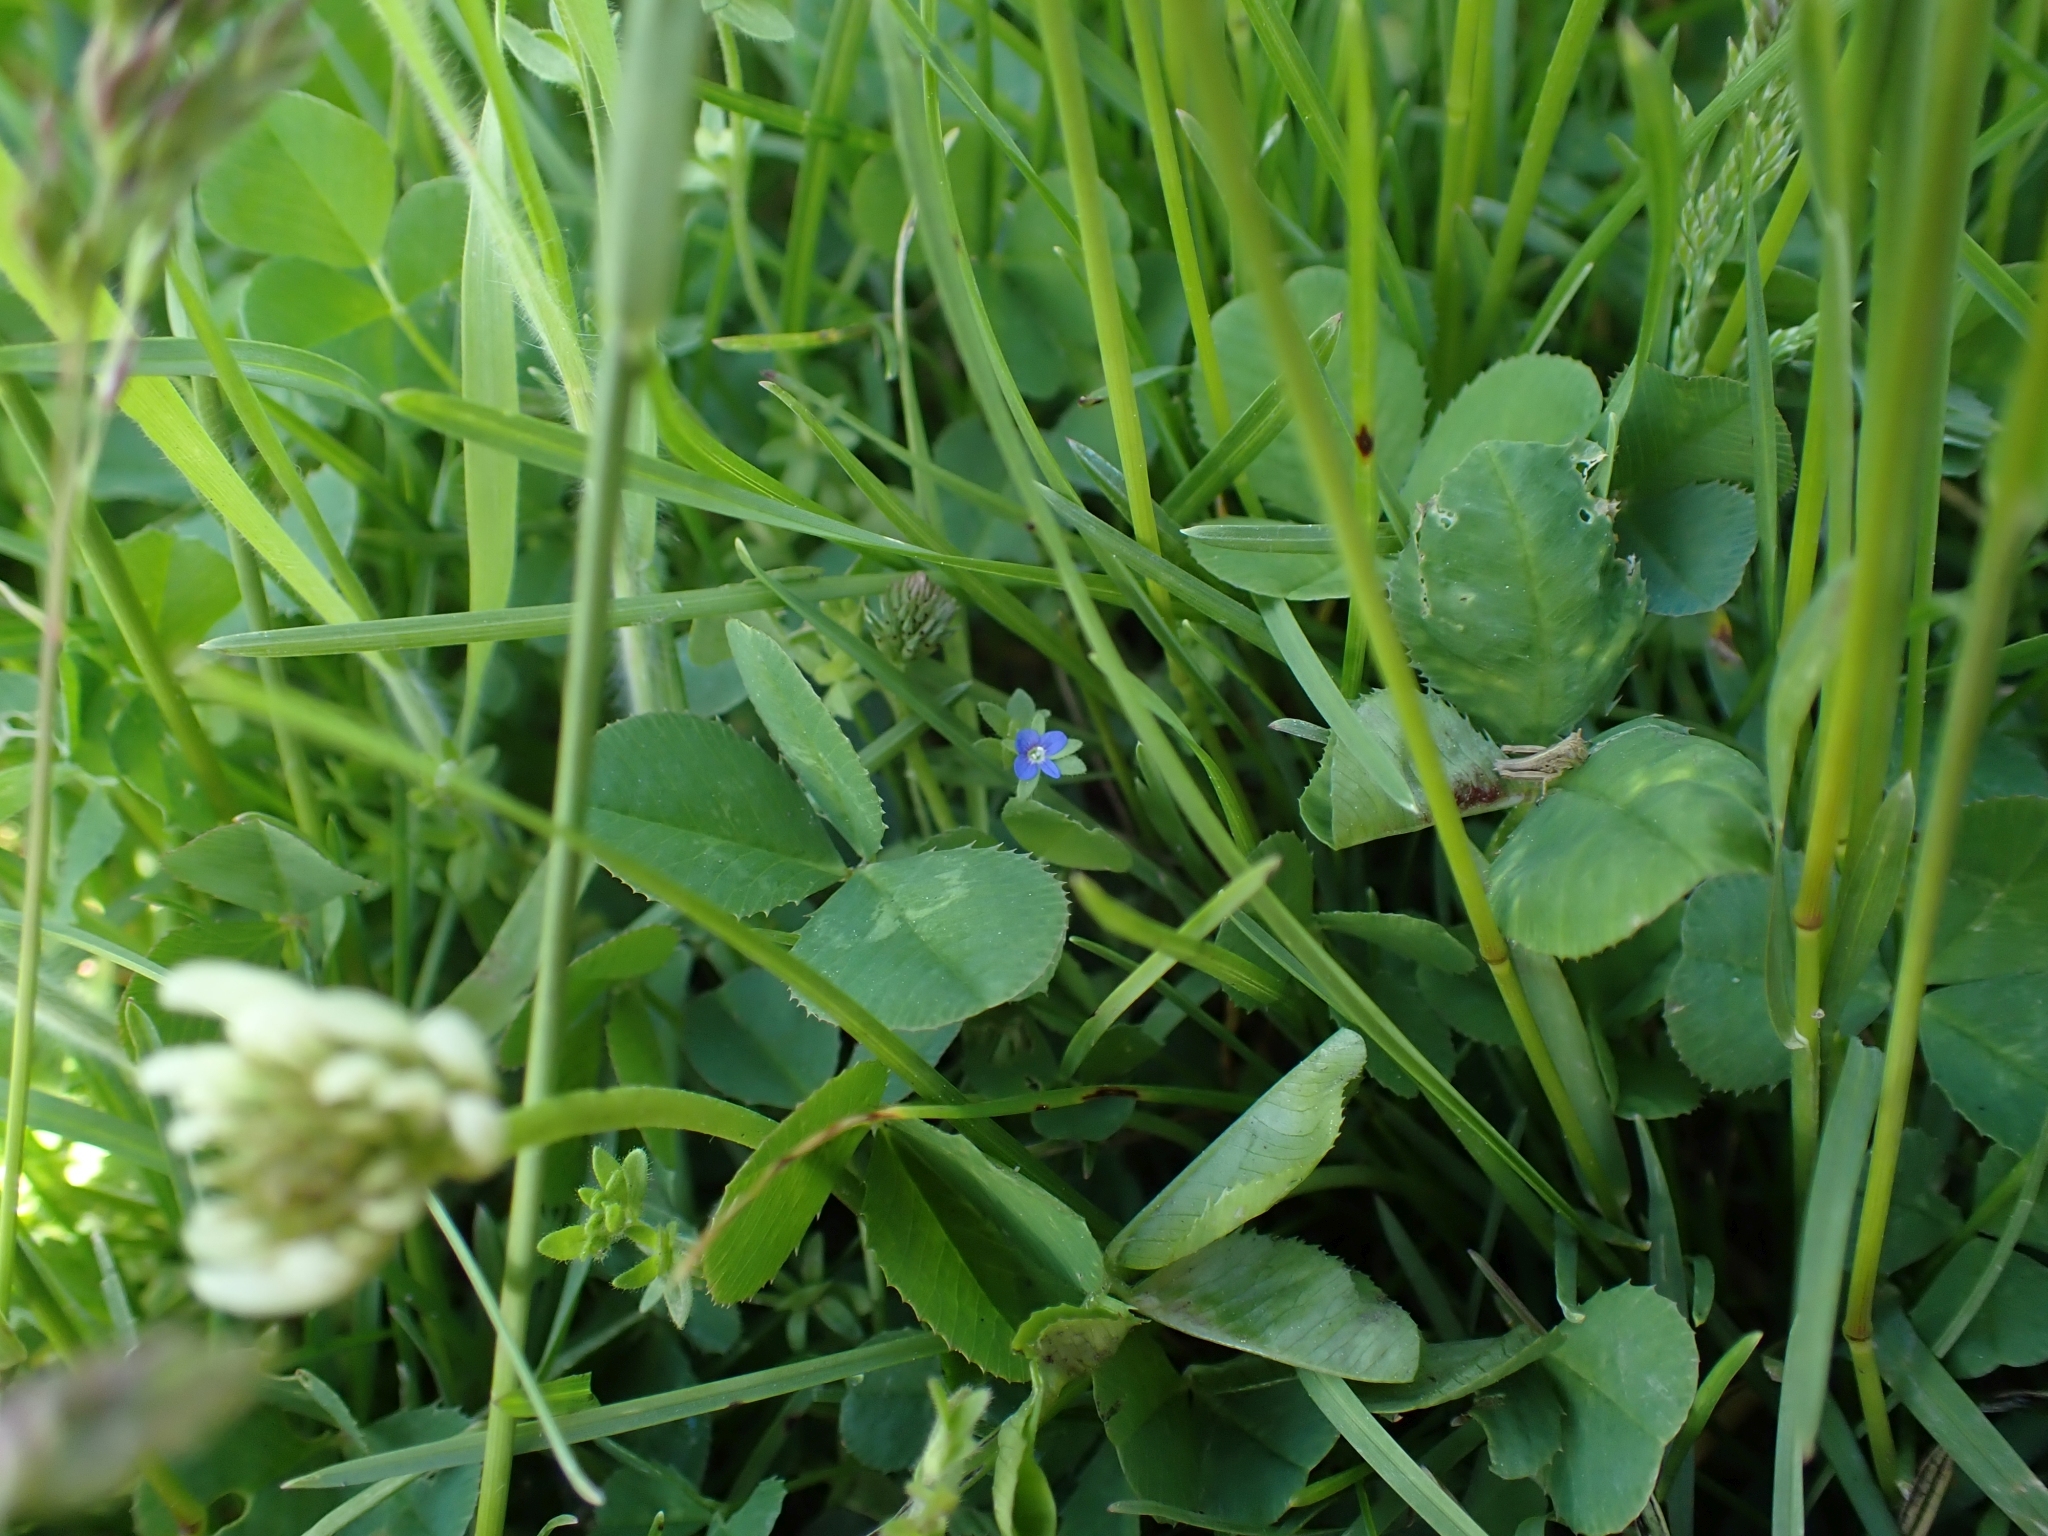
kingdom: Plantae
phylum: Tracheophyta
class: Magnoliopsida
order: Lamiales
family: Plantaginaceae
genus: Veronica
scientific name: Veronica arvensis
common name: Corn speedwell
